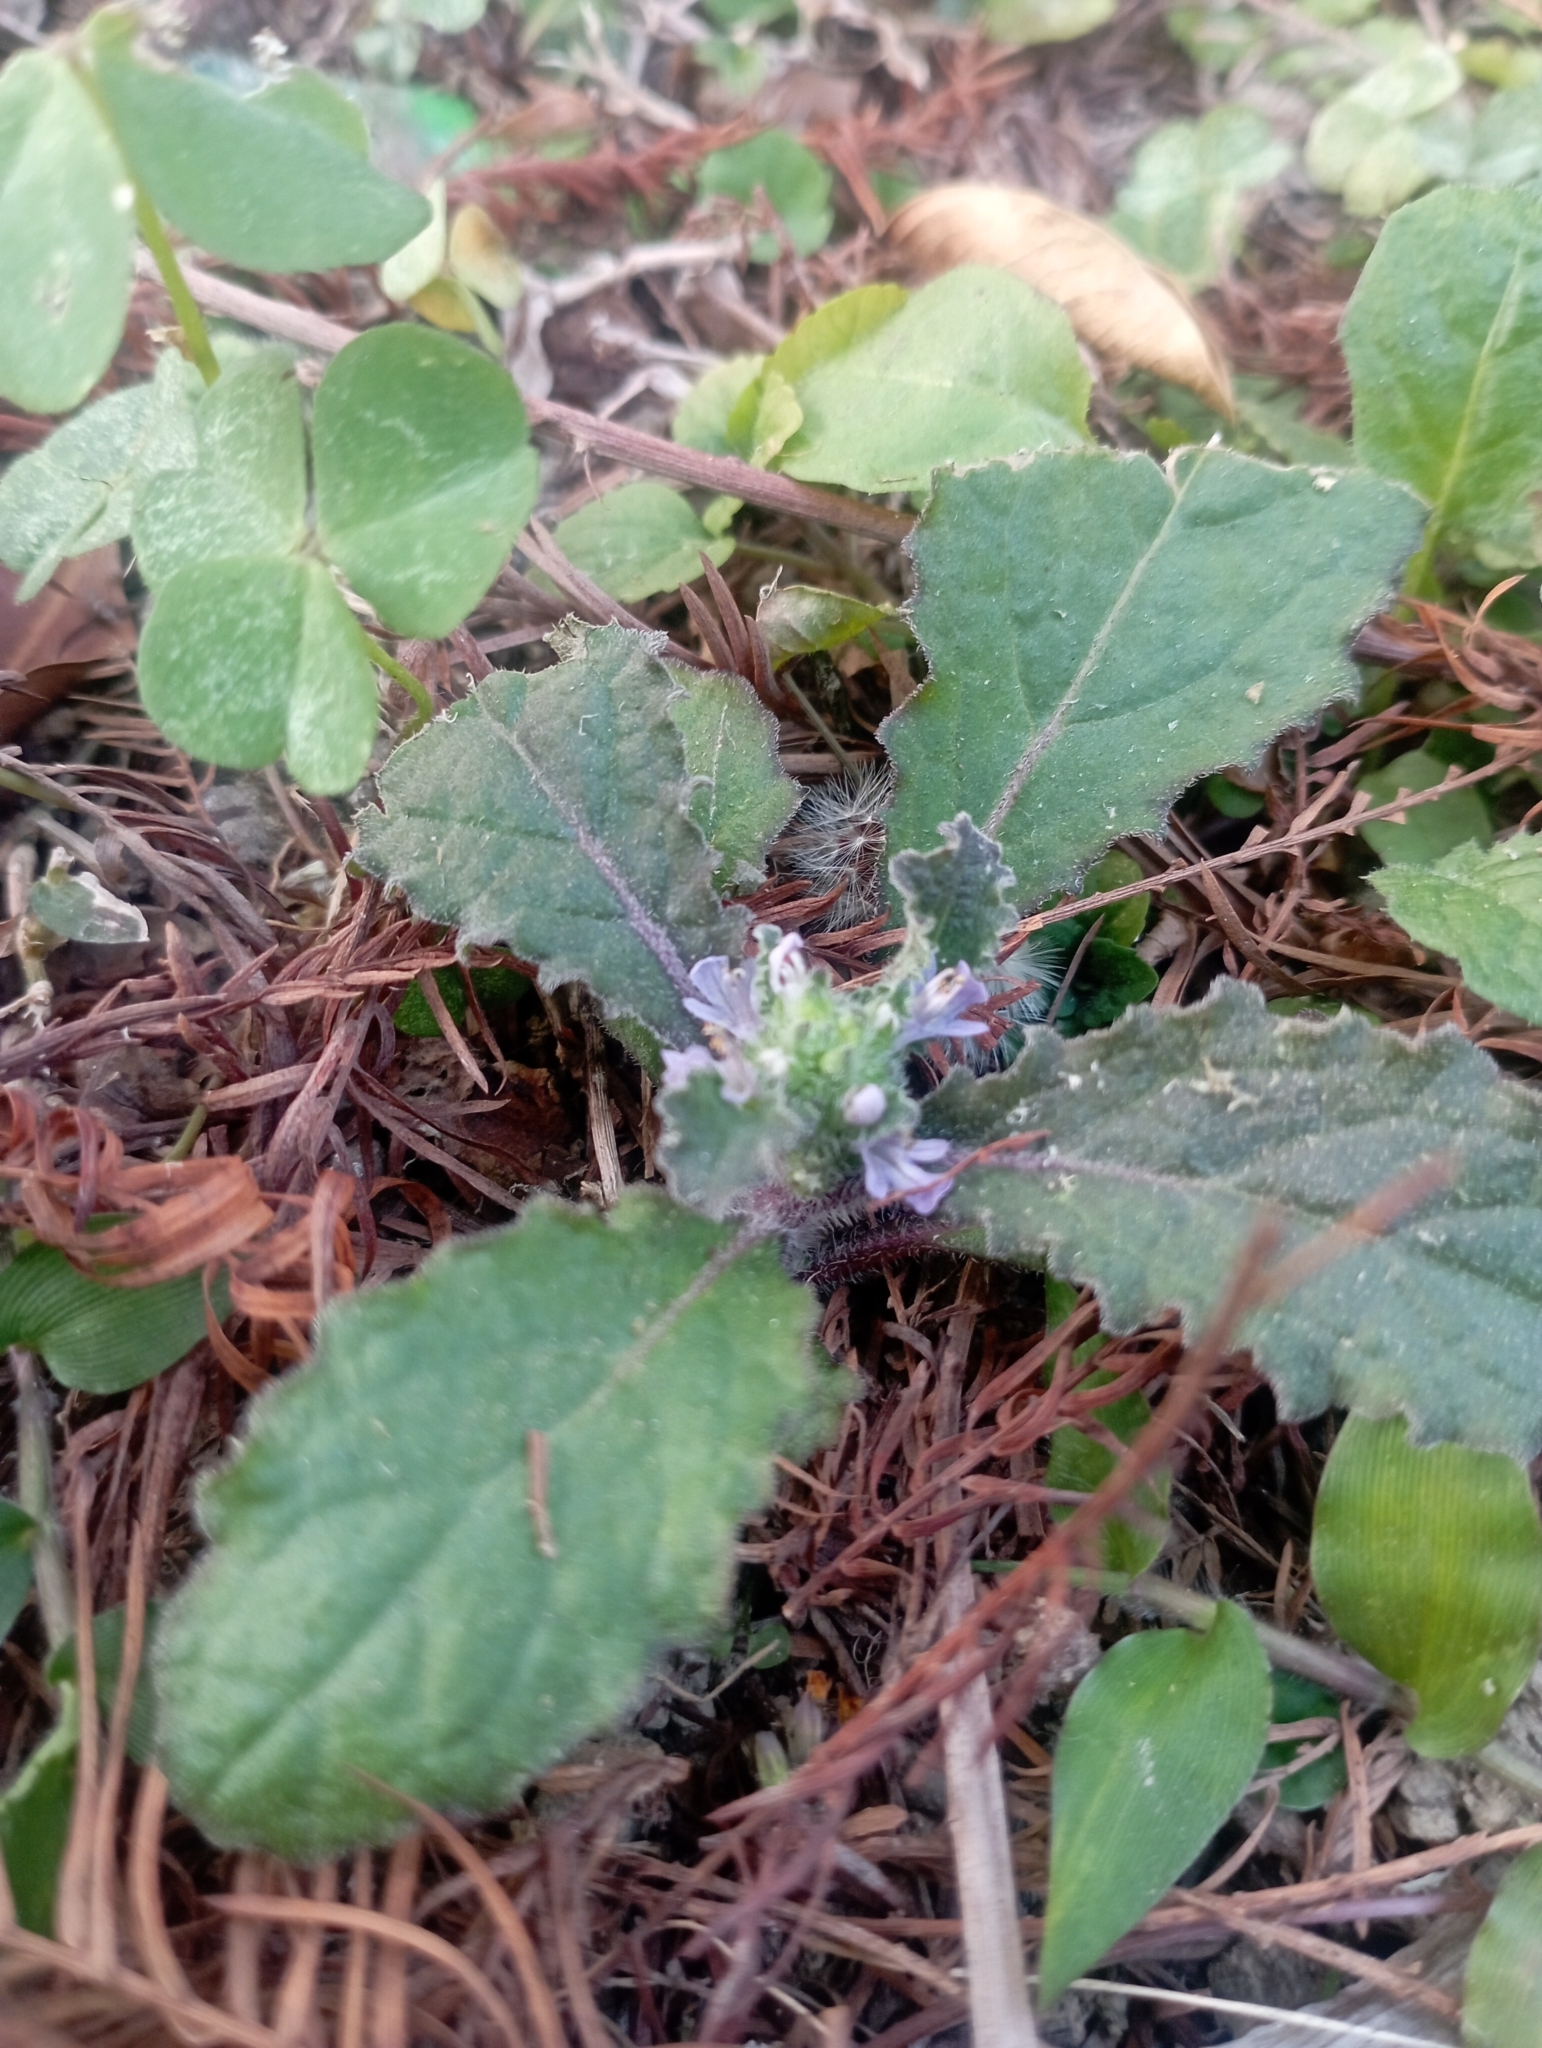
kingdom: Plantae
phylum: Tracheophyta
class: Magnoliopsida
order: Lamiales
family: Lamiaceae
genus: Ajuga
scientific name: Ajuga taiwanensis
